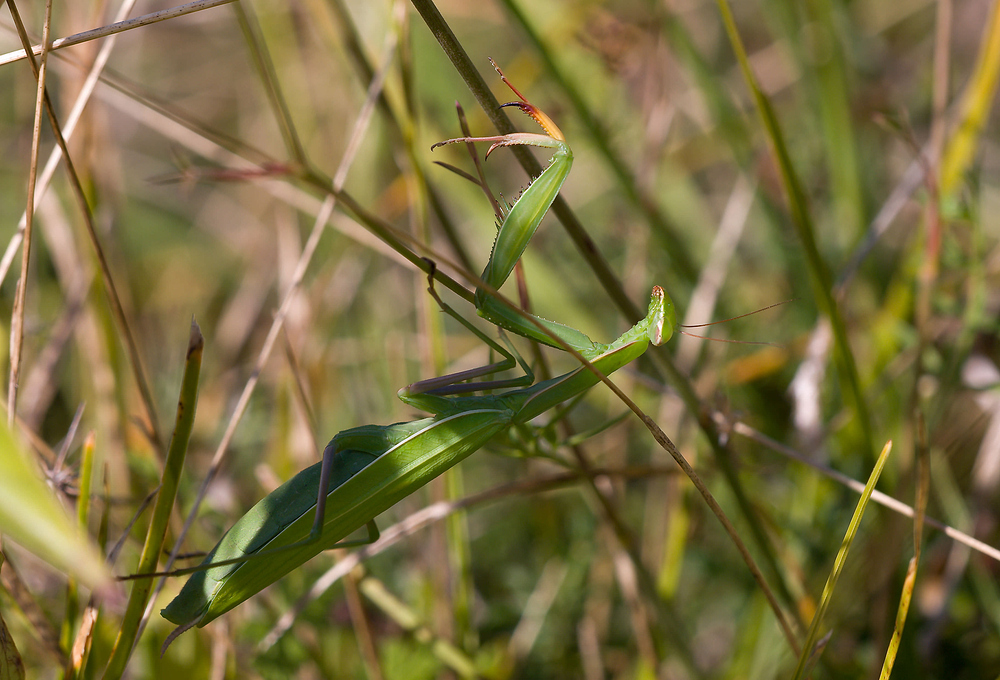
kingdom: Animalia
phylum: Arthropoda
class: Insecta
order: Mantodea
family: Mantidae
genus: Mantis
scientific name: Mantis religiosa
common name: Praying mantis
